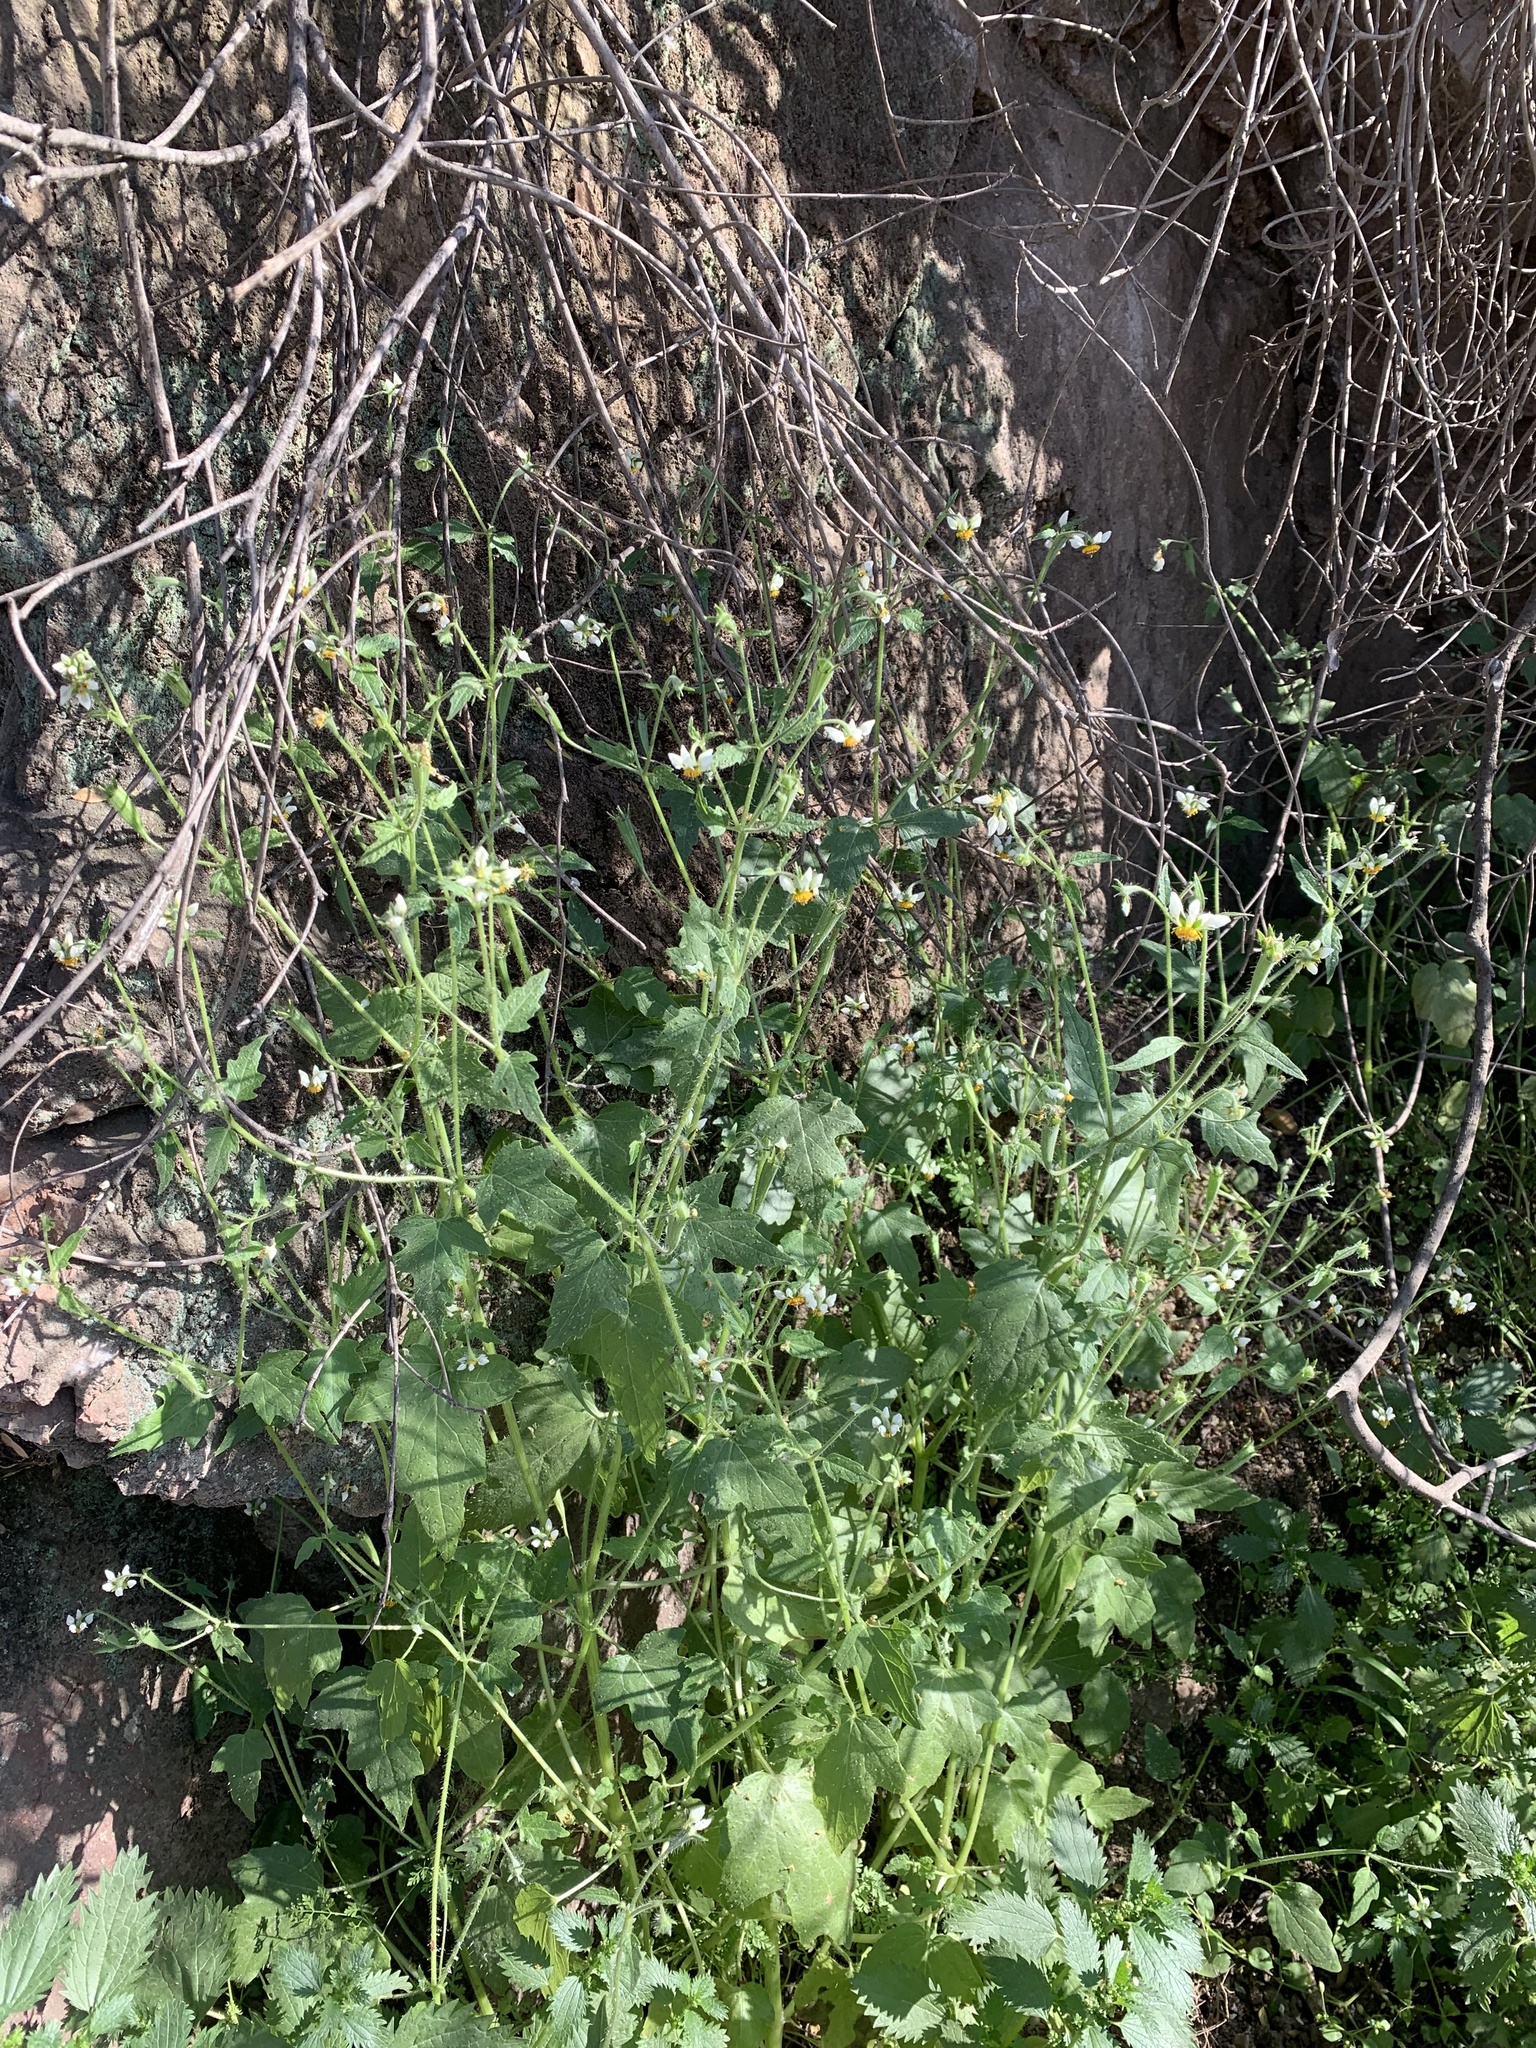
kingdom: Plantae
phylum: Tracheophyta
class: Magnoliopsida
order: Cornales
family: Loasaceae
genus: Loasa
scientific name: Loasa triloba
